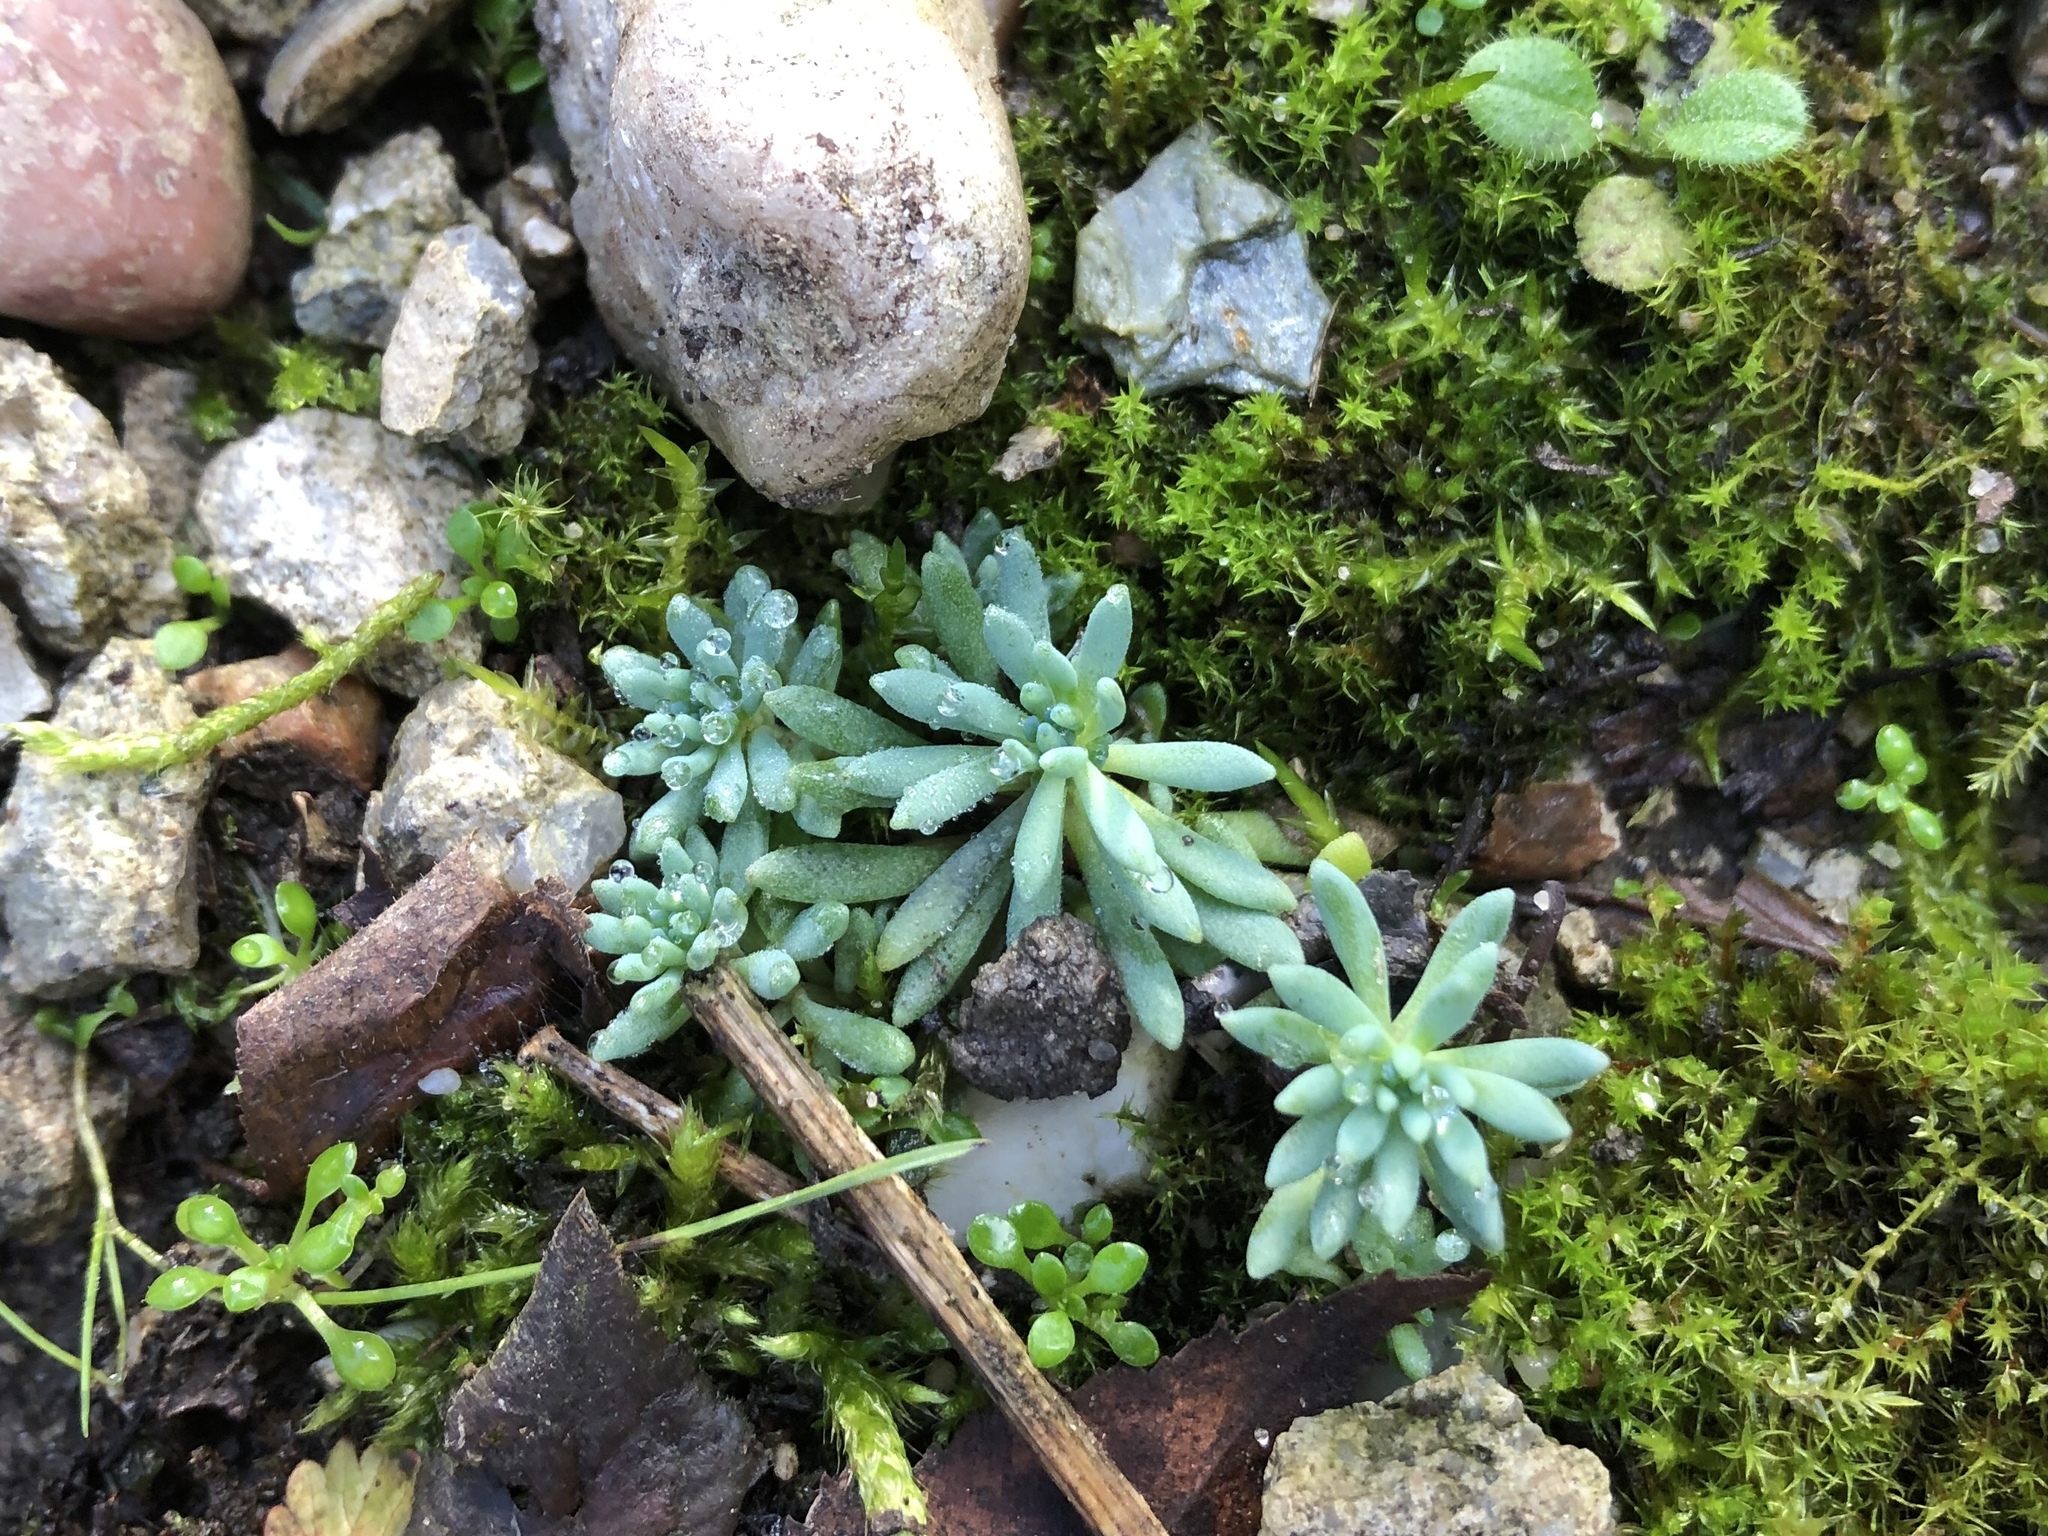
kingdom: Plantae
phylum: Tracheophyta
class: Magnoliopsida
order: Saxifragales
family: Crassulaceae
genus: Sedum
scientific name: Sedum hispanicum
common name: Spanish stonecrop
